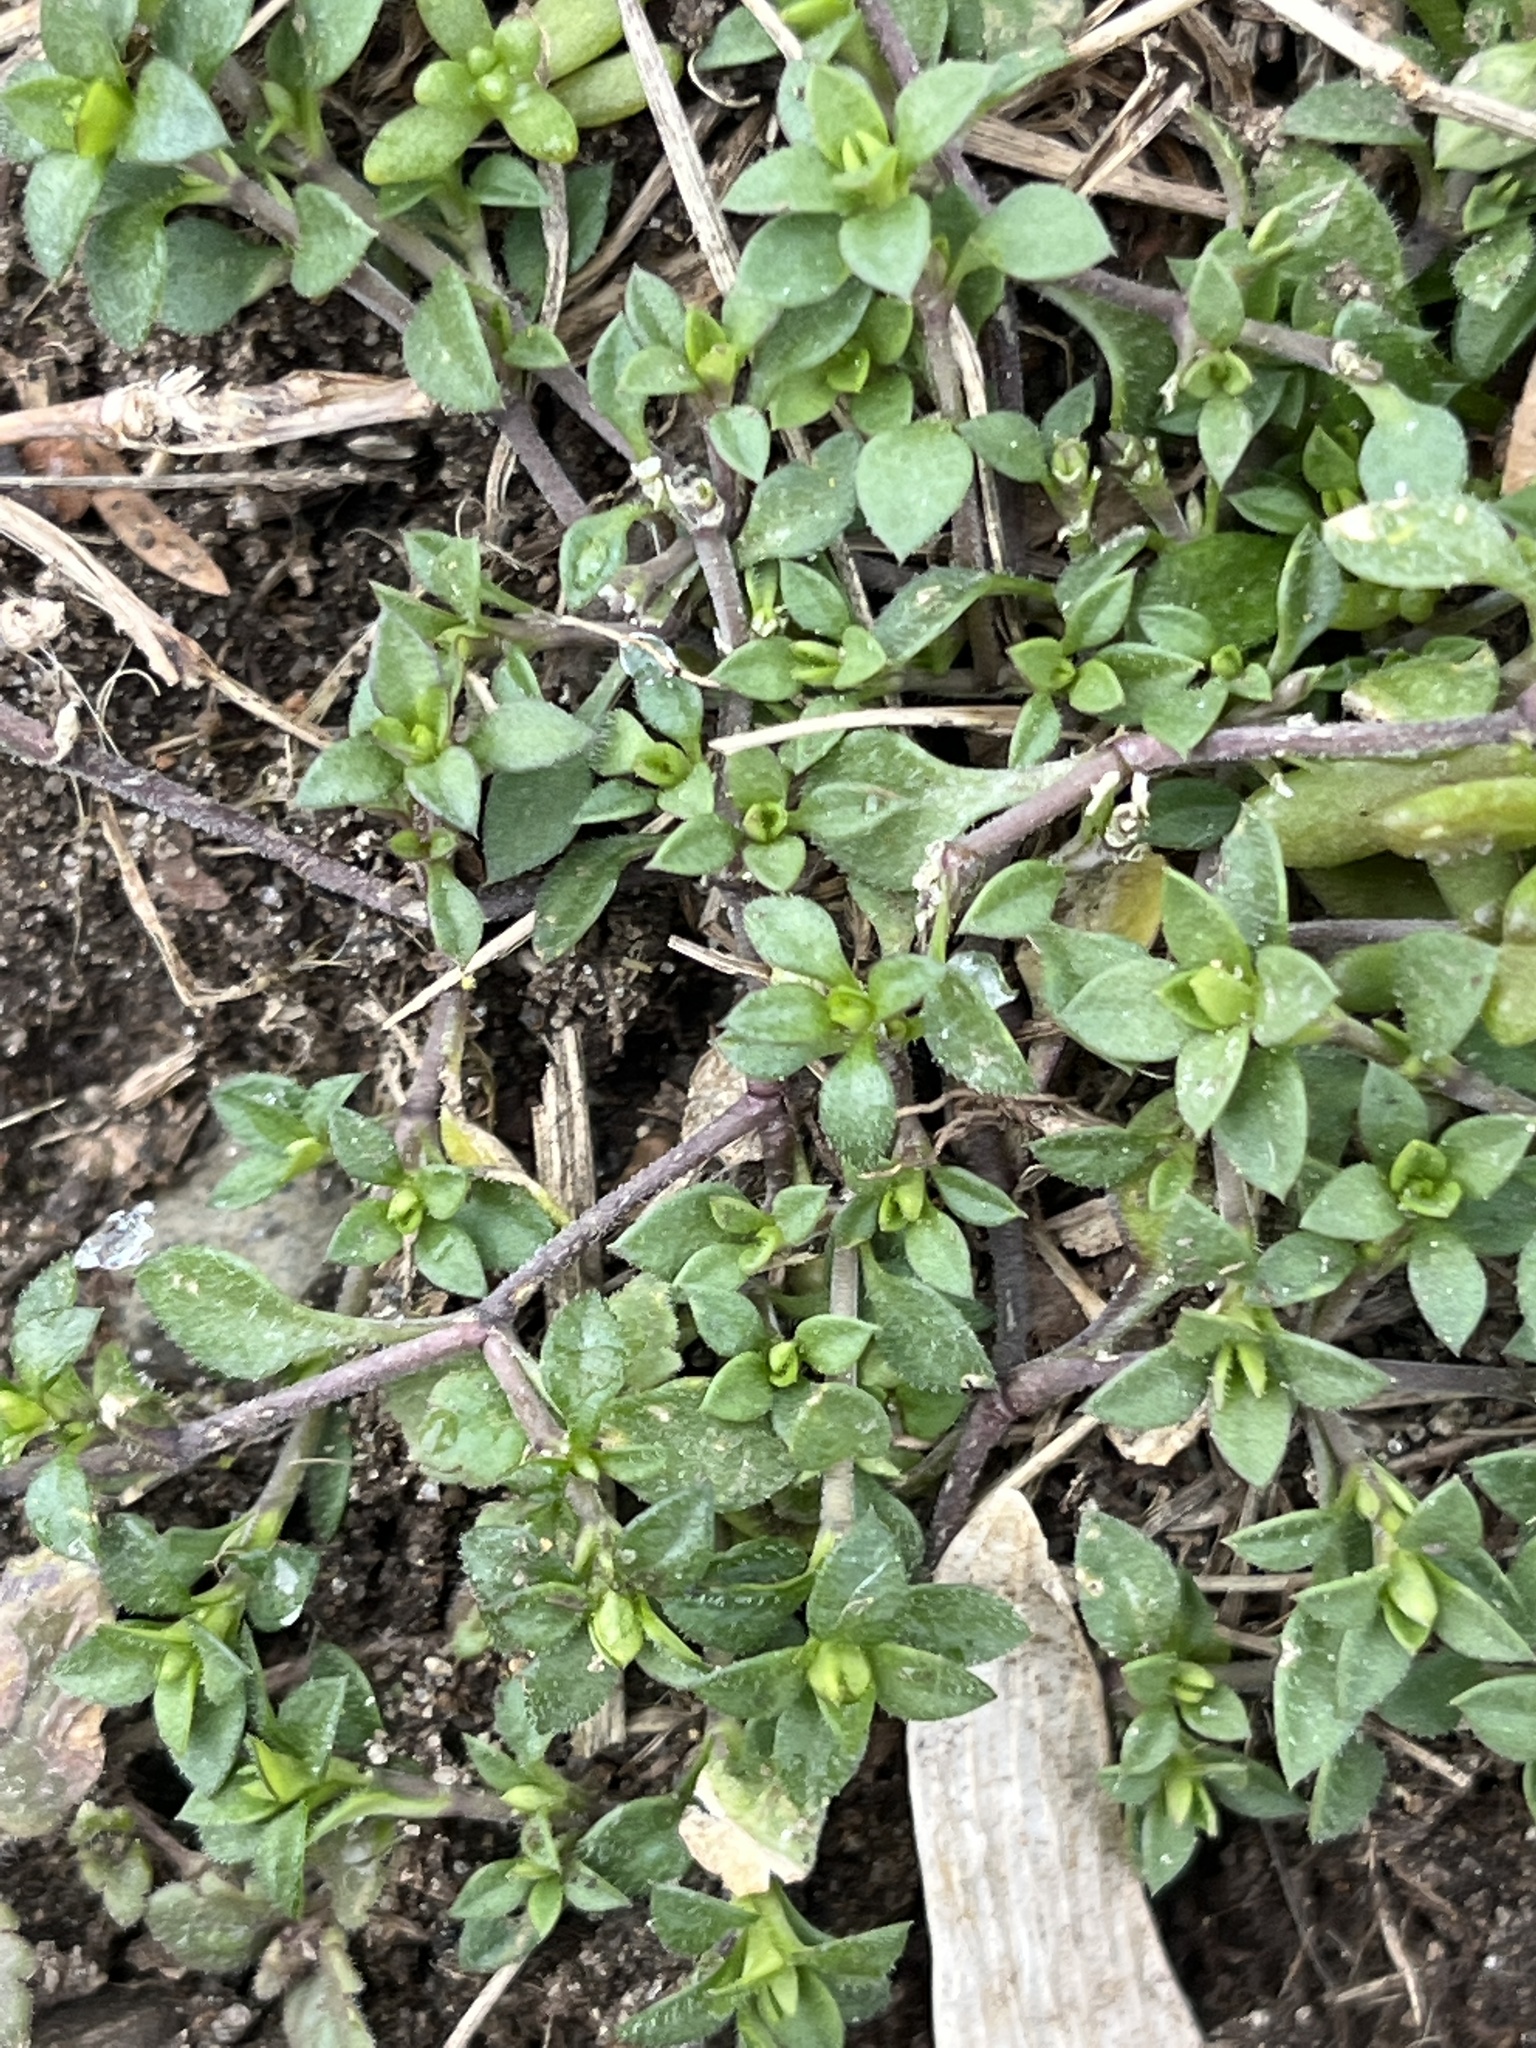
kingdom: Plantae
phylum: Tracheophyta
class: Magnoliopsida
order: Caryophyllales
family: Caryophyllaceae
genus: Stellaria
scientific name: Stellaria media
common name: Common chickweed
